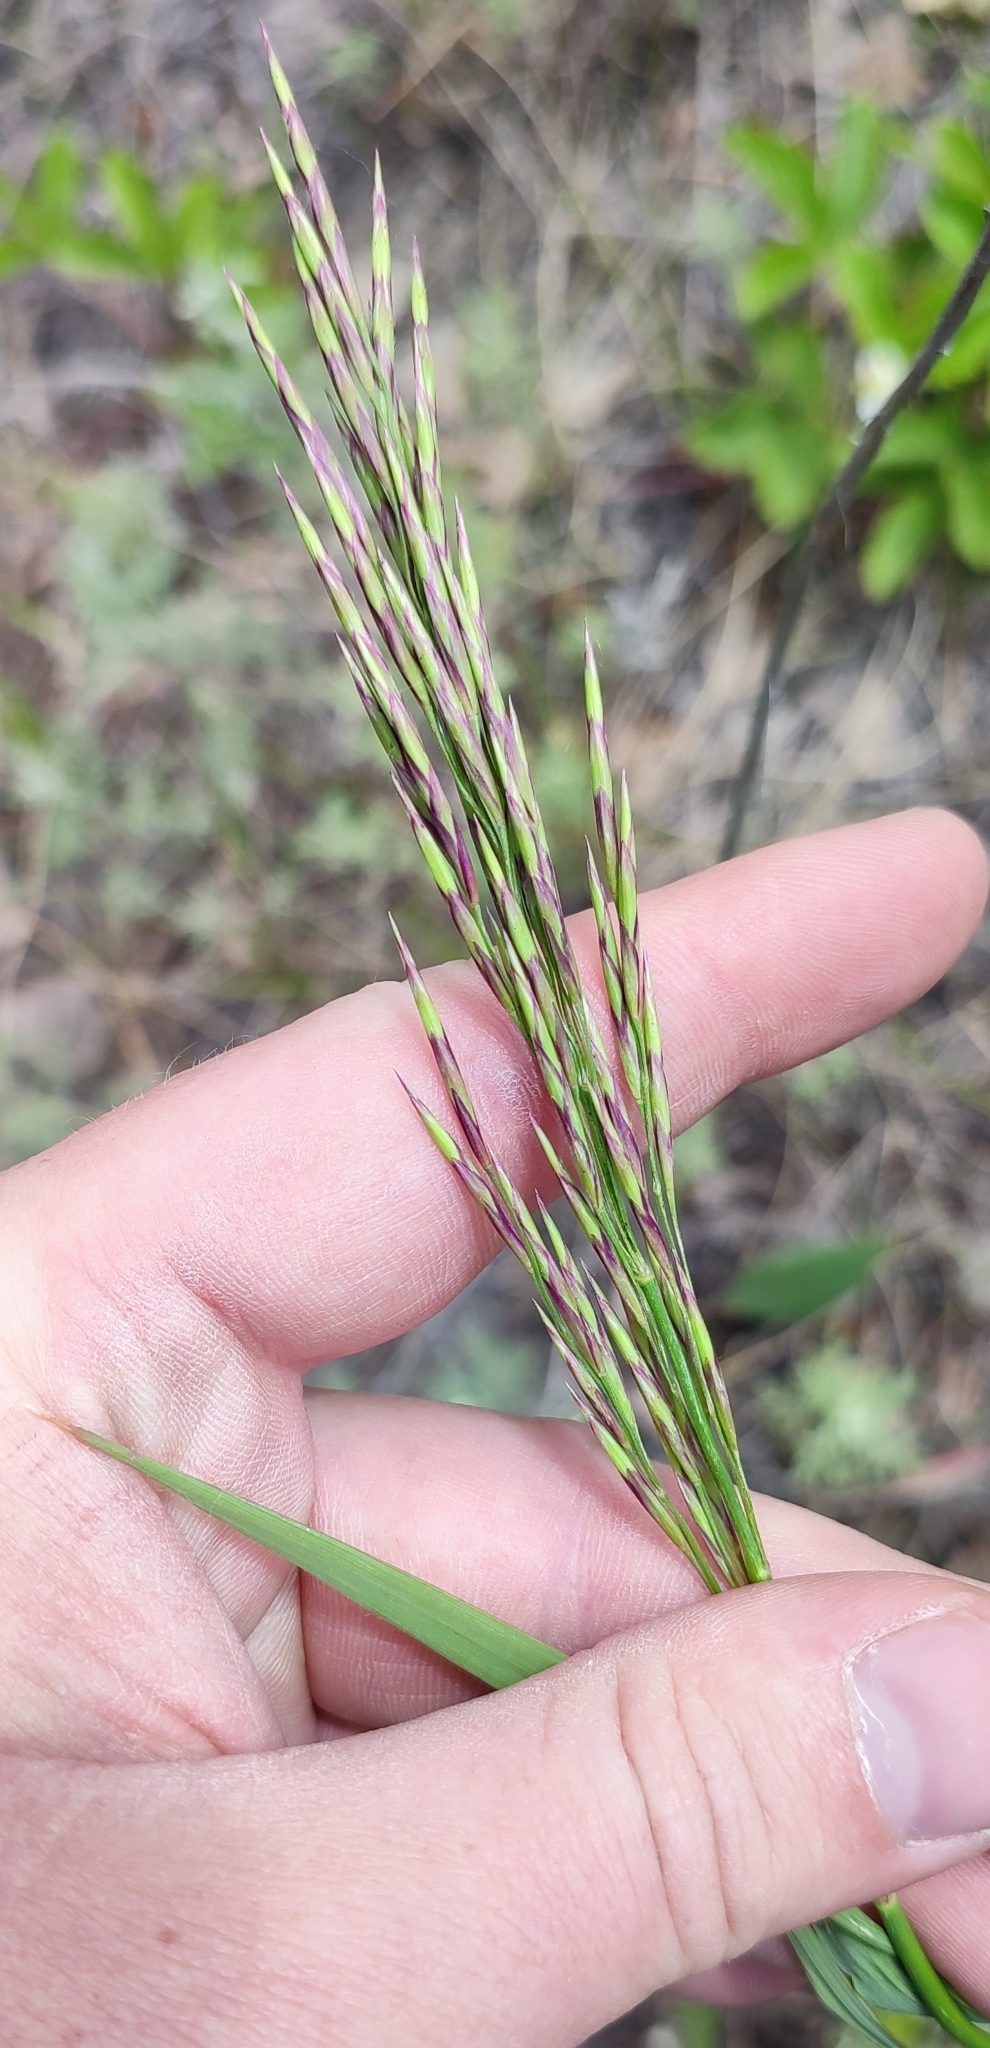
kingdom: Plantae
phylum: Tracheophyta
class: Liliopsida
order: Poales
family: Poaceae
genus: Bromus
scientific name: Bromus inermis
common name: Smooth brome
